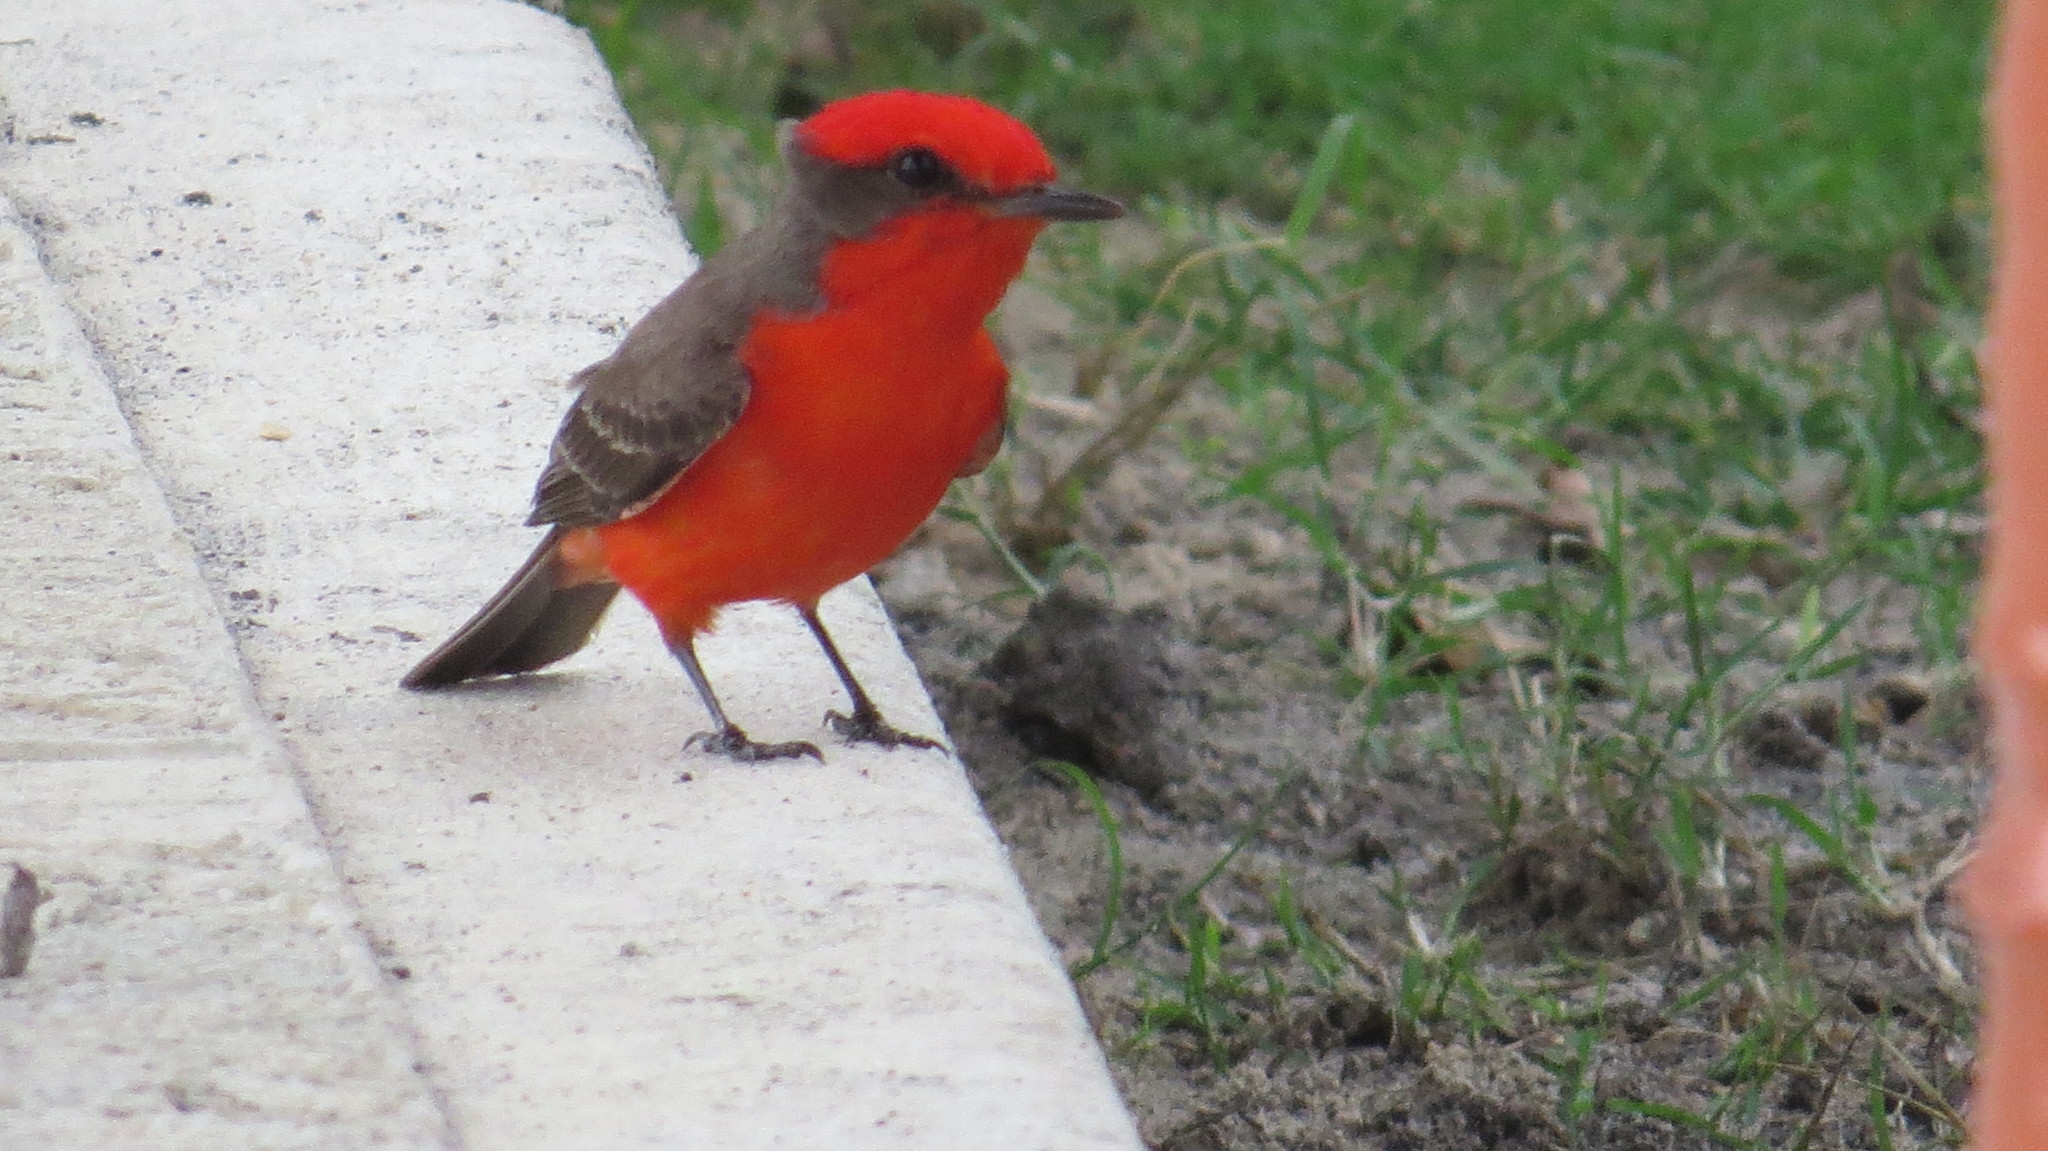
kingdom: Animalia
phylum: Chordata
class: Aves
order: Passeriformes
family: Tyrannidae
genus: Pyrocephalus
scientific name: Pyrocephalus rubinus
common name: Vermilion flycatcher
